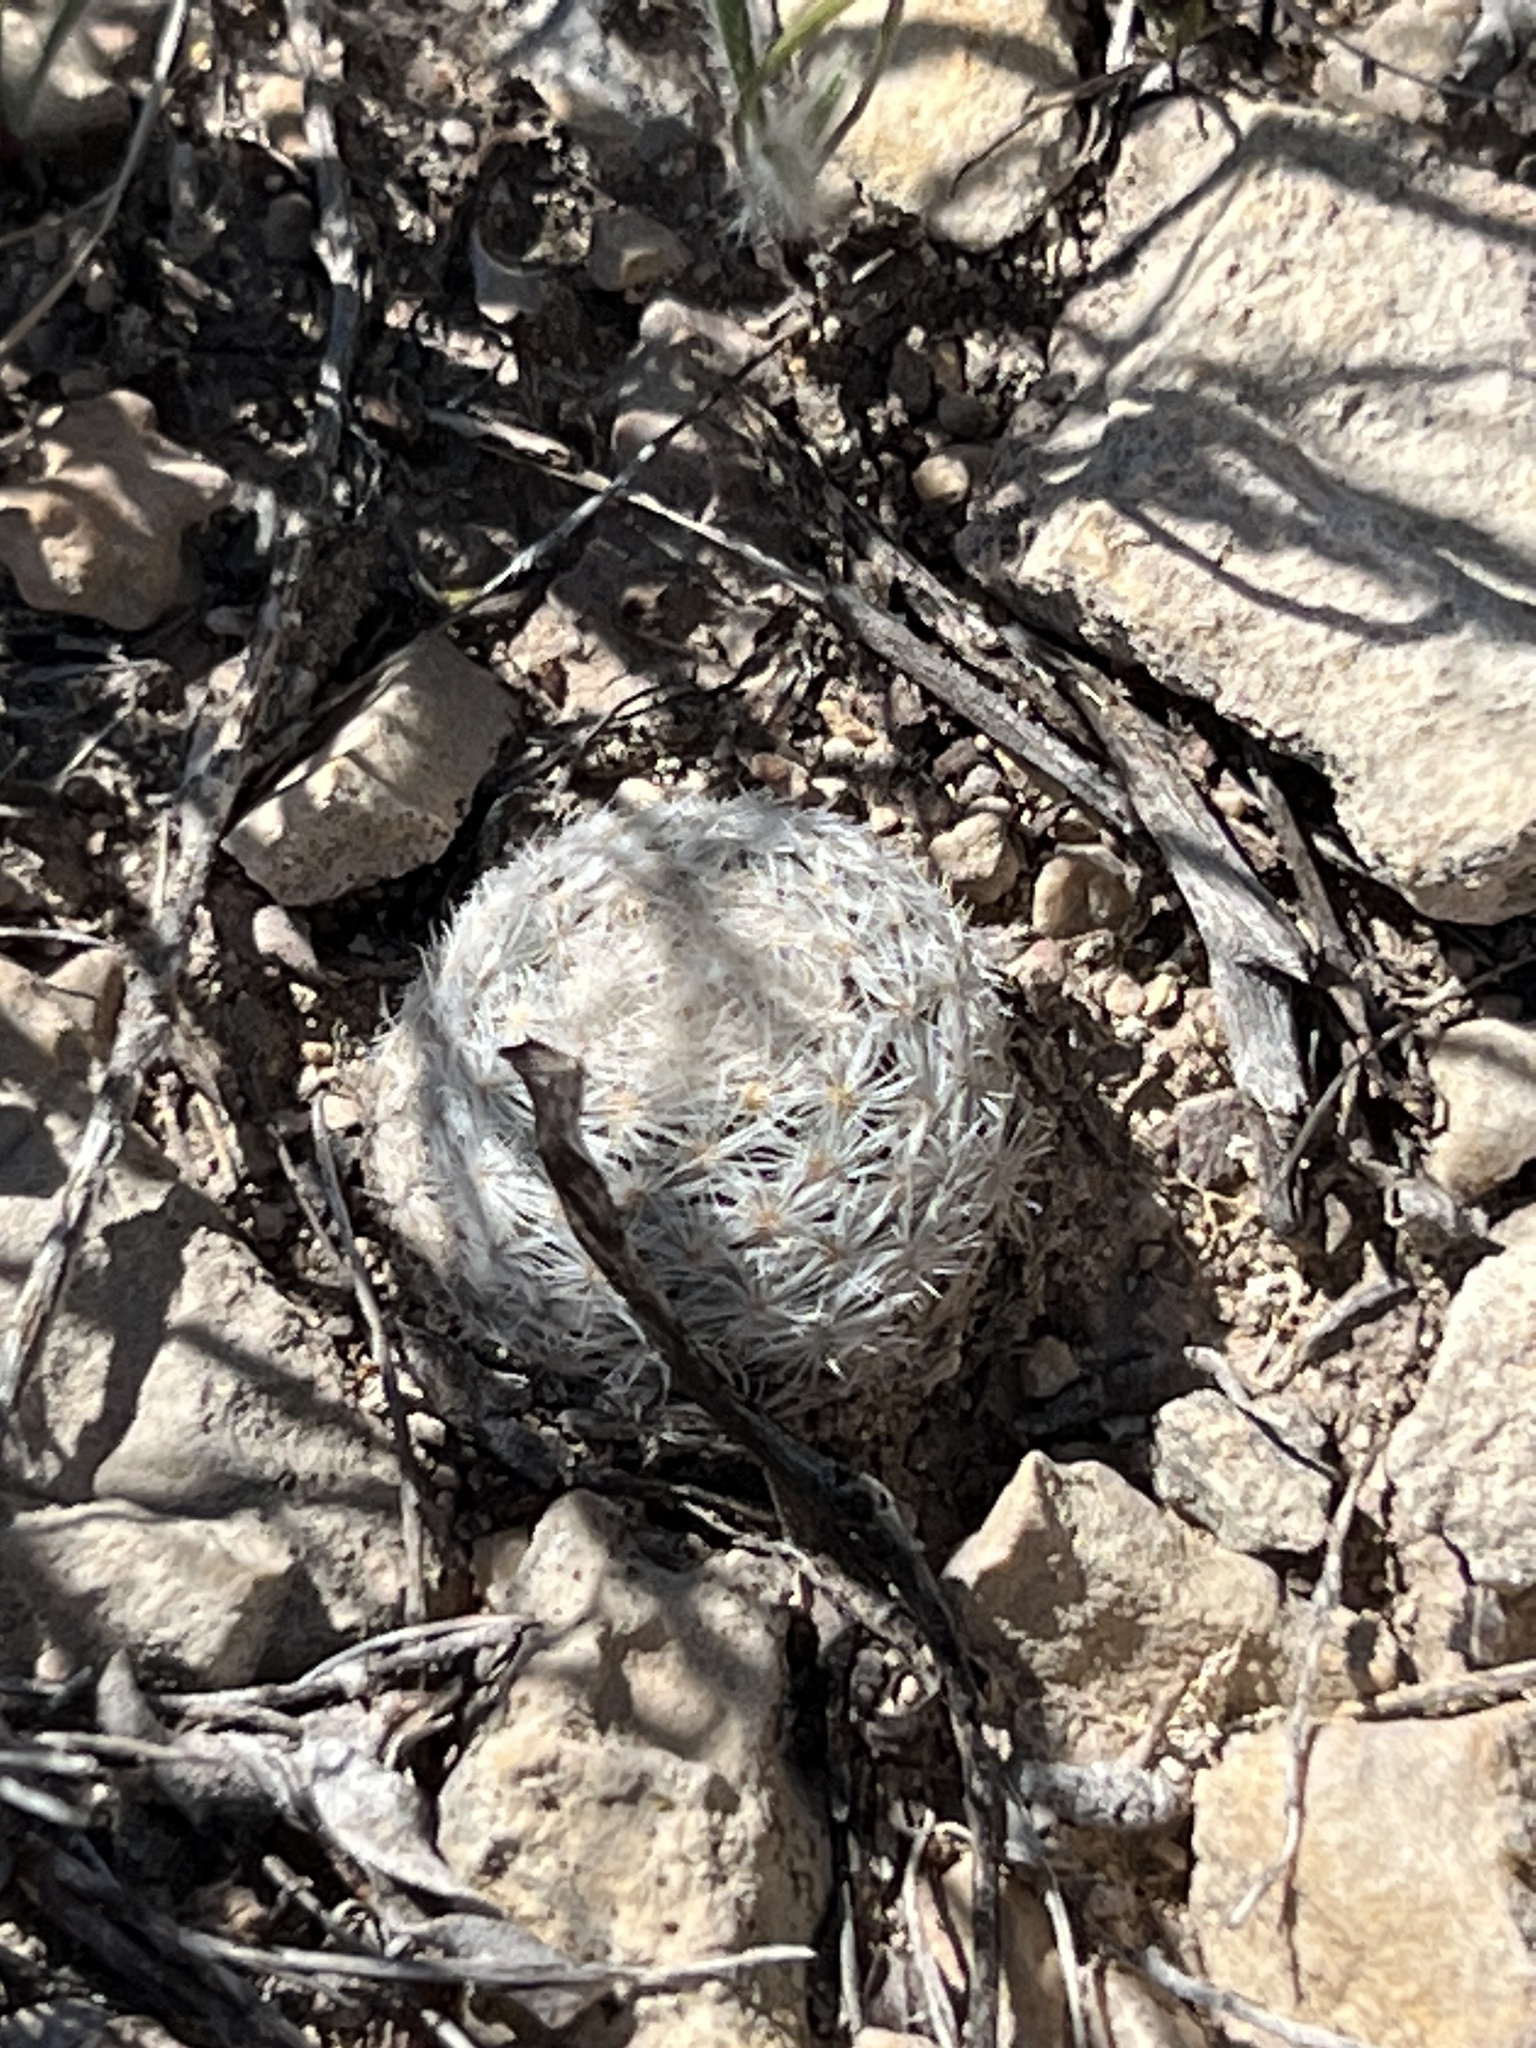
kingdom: Plantae
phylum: Tracheophyta
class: Magnoliopsida
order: Caryophyllales
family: Cactaceae
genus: Mammillaria
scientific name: Mammillaria lasiacantha
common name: Lace-spine nipple cactus
